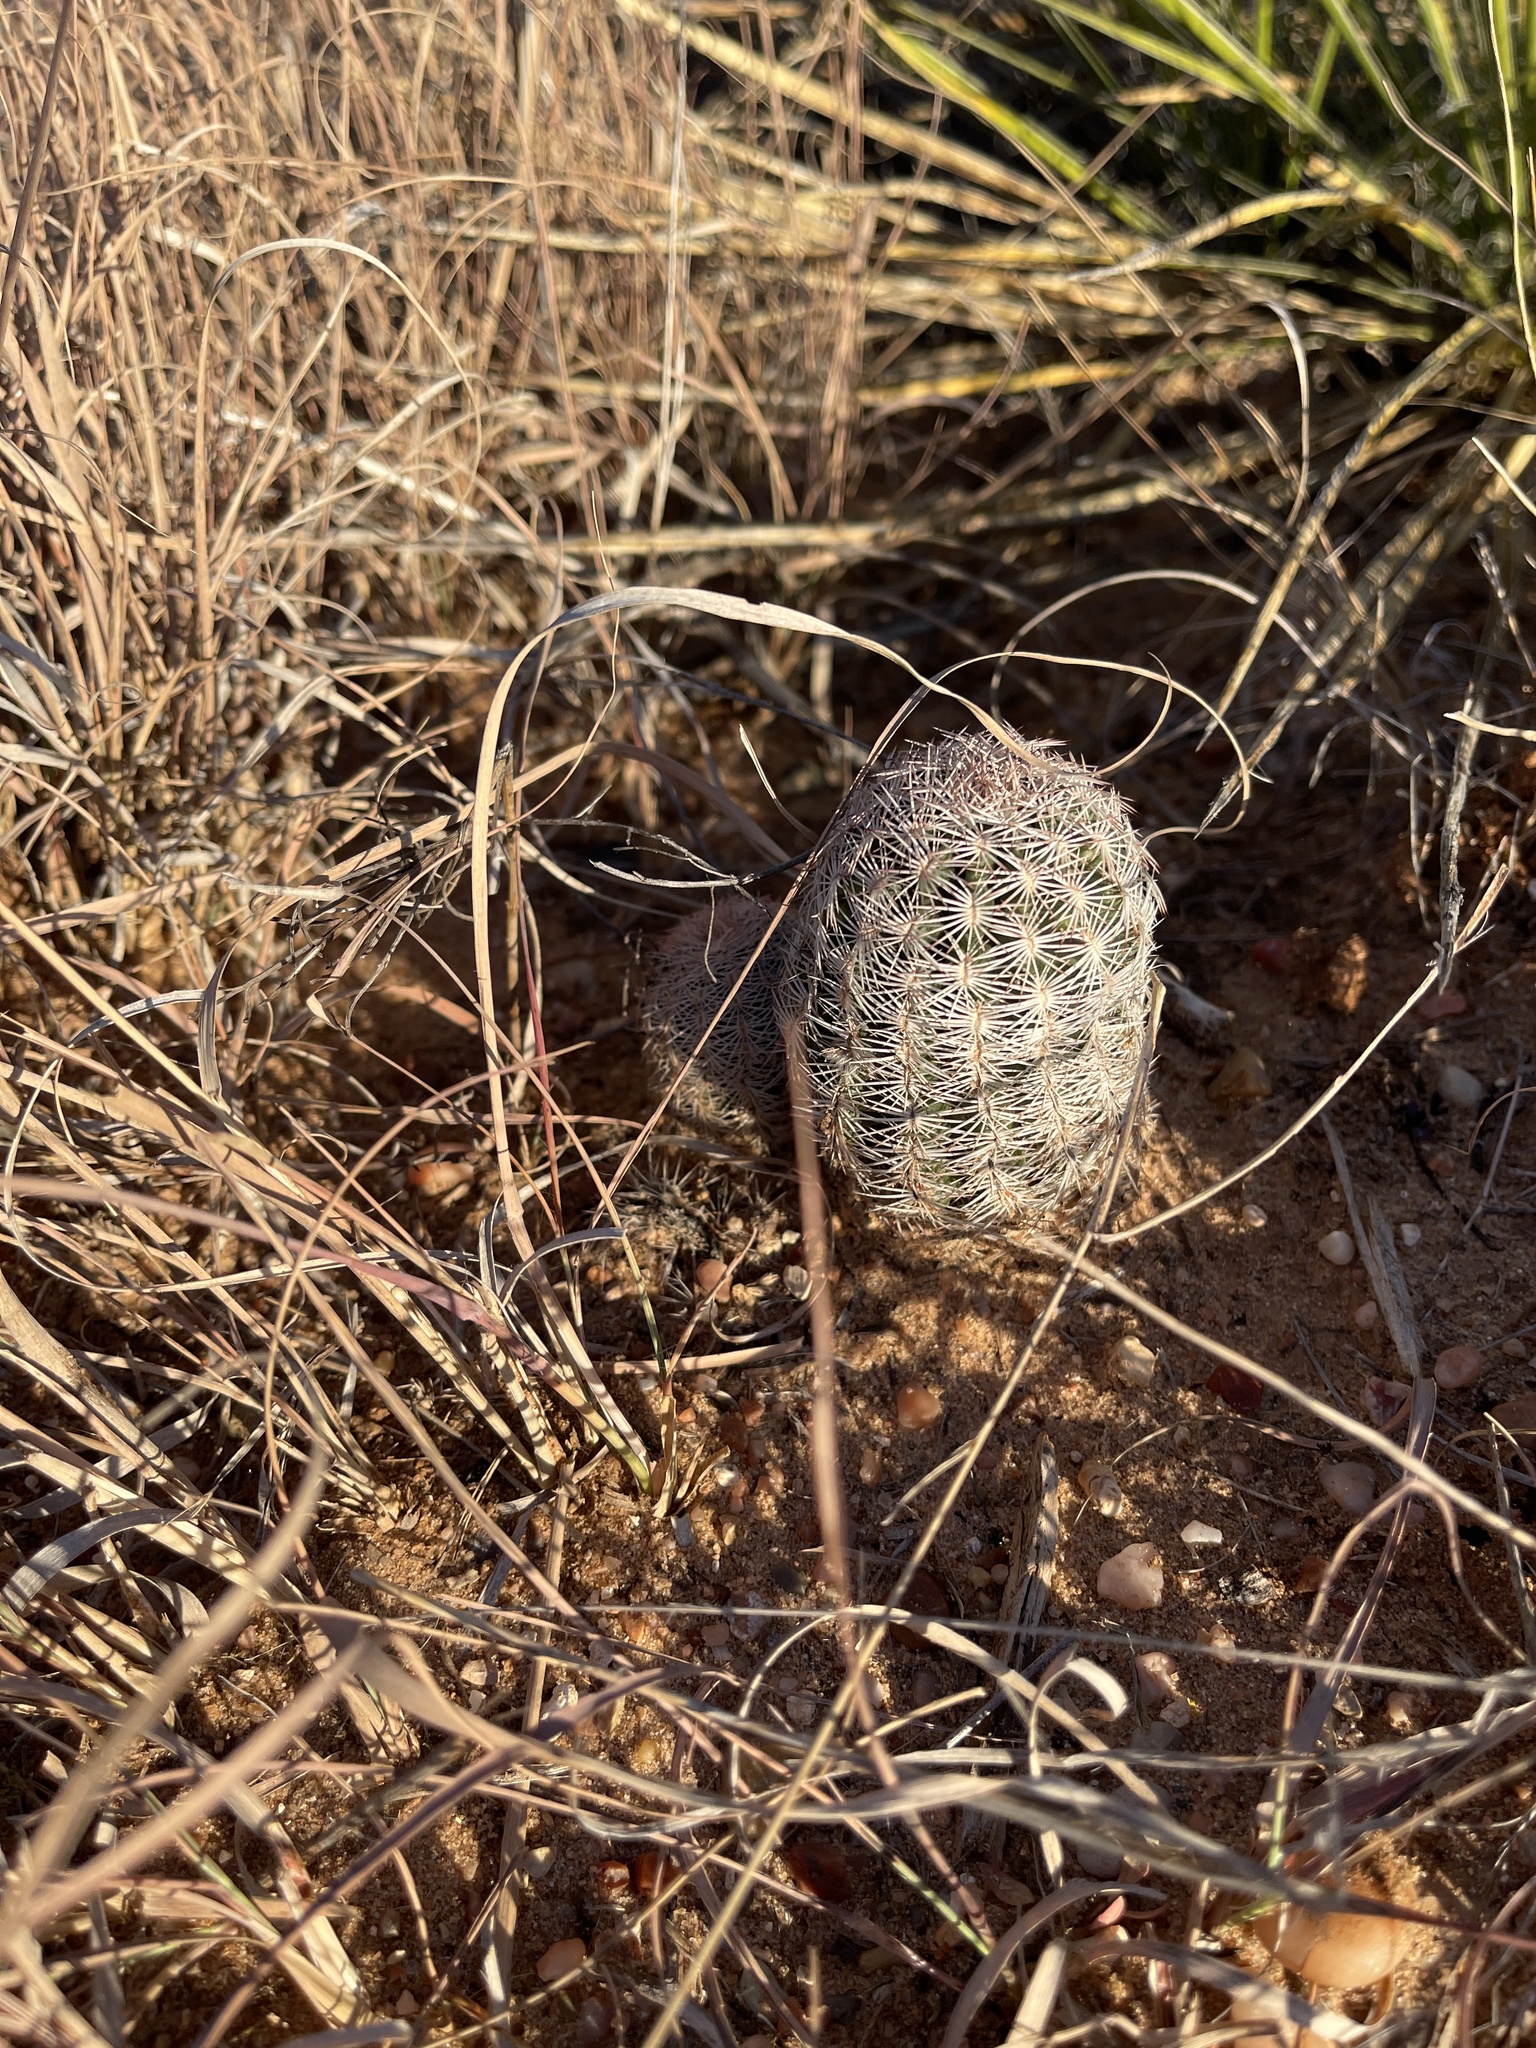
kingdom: Plantae
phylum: Tracheophyta
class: Magnoliopsida
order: Caryophyllales
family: Cactaceae
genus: Echinocereus
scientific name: Echinocereus reichenbachii
